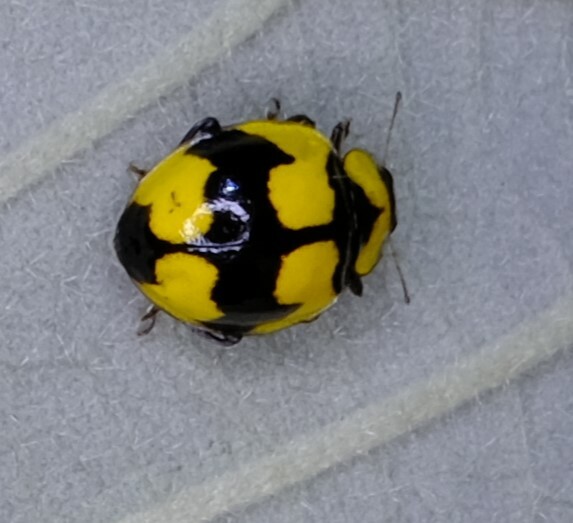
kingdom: Animalia
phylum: Arthropoda
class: Insecta
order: Coleoptera
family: Coccinellidae
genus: Illeis
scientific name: Illeis galbula
